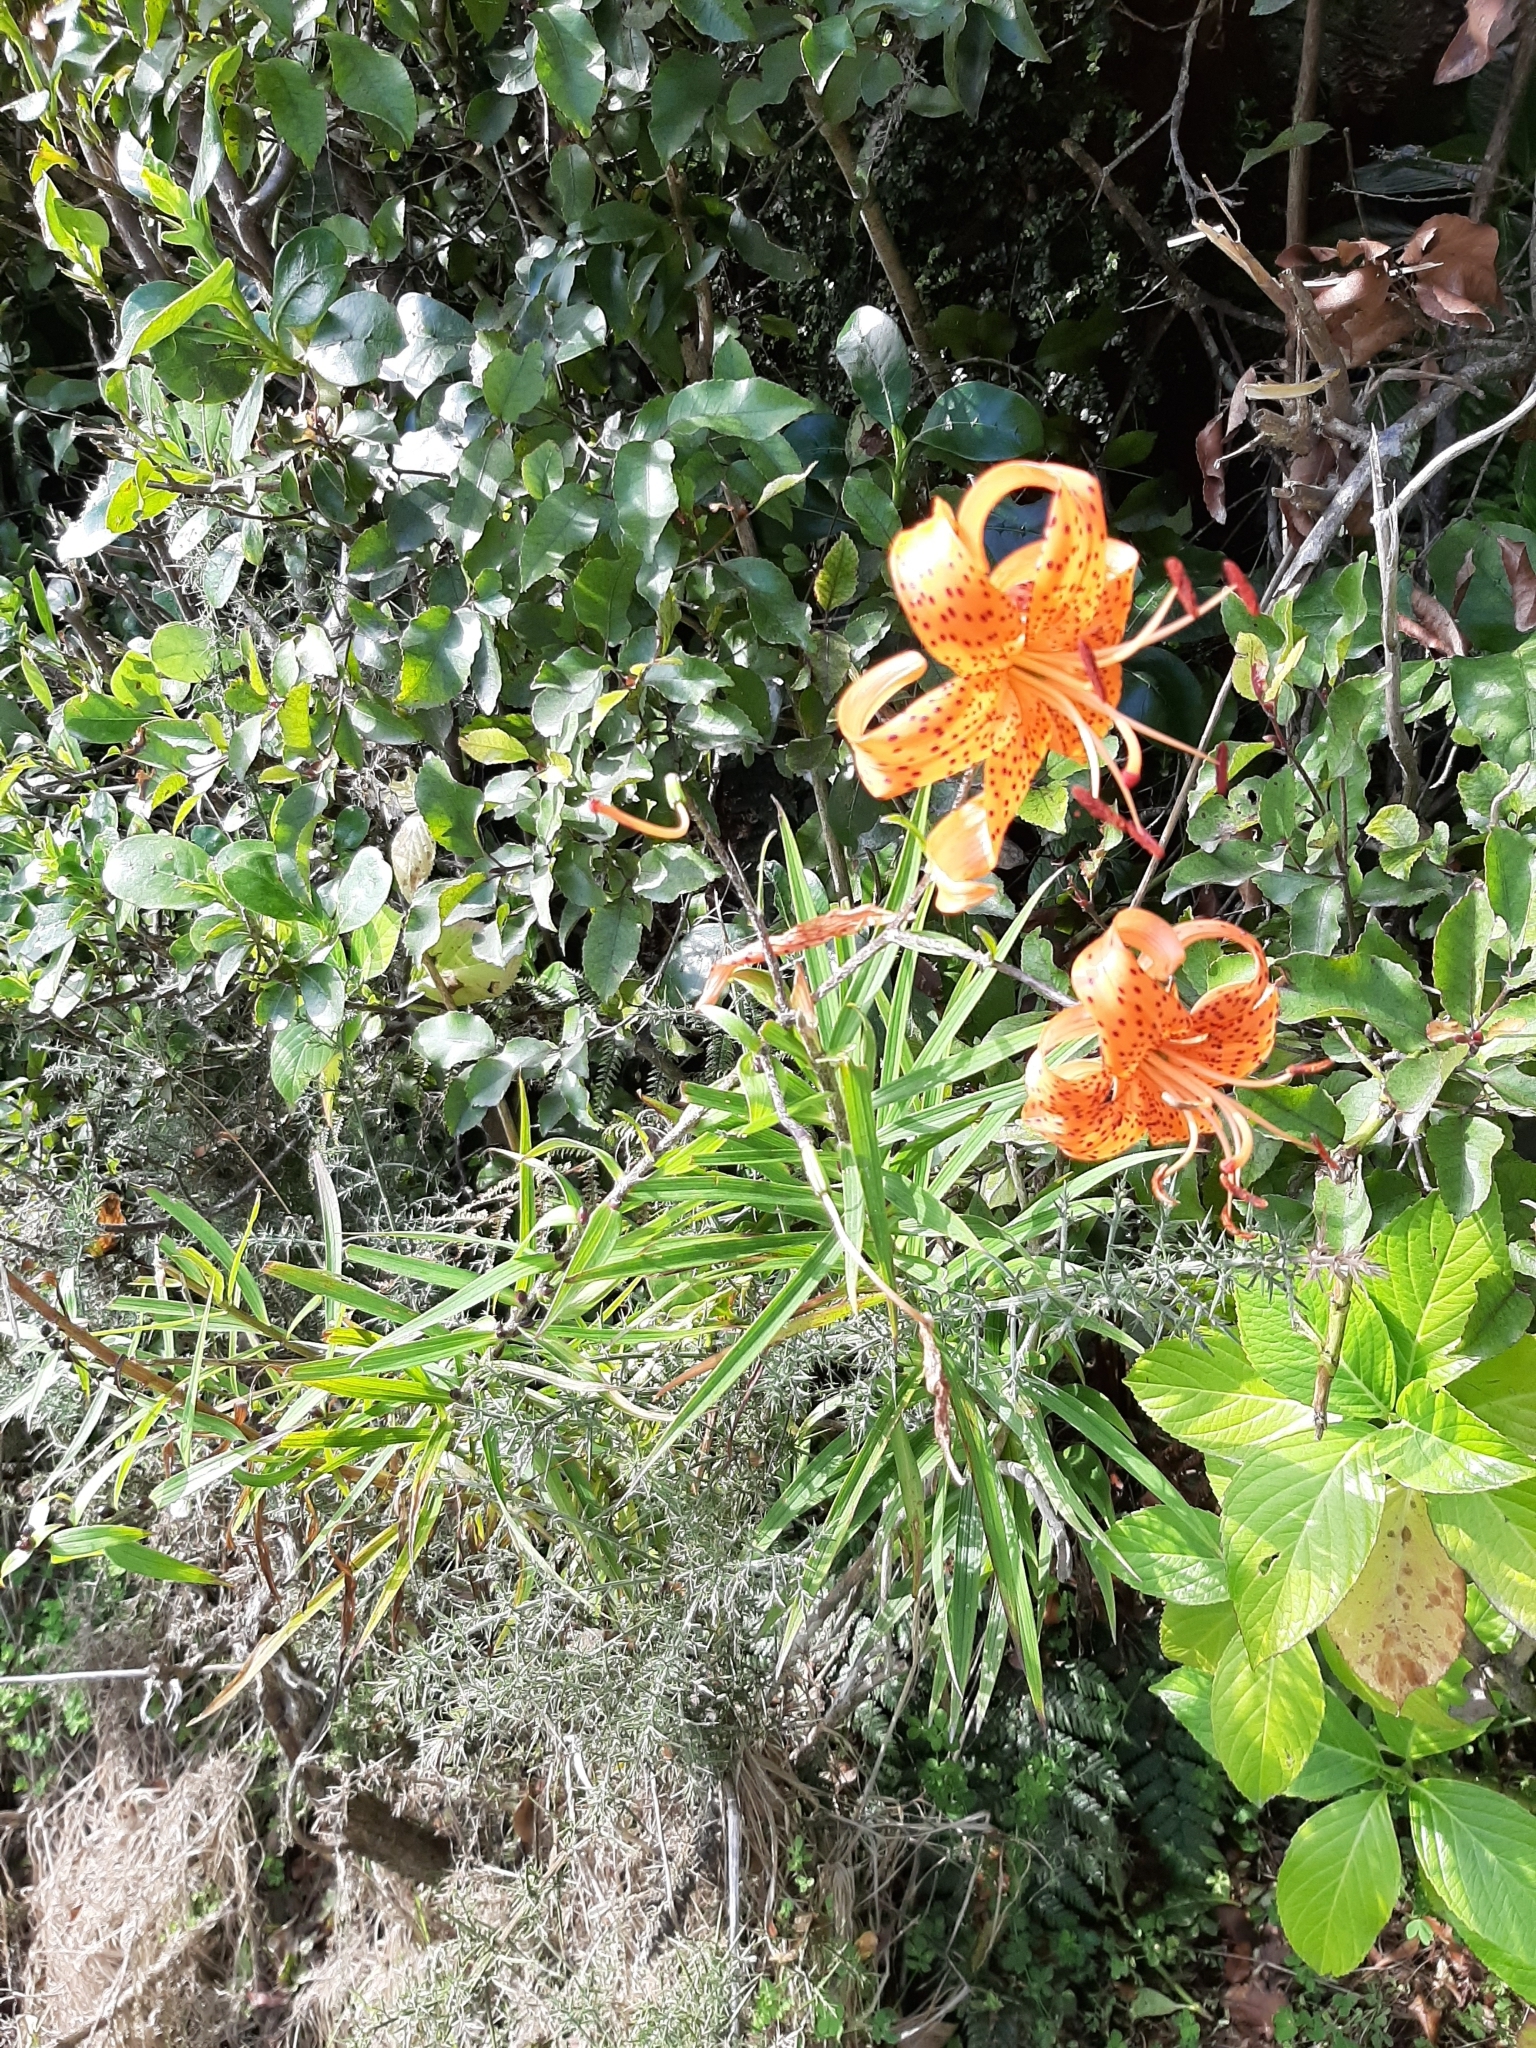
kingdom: Plantae
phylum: Tracheophyta
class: Liliopsida
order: Liliales
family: Liliaceae
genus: Lilium
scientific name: Lilium lancifolium
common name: Tiger lily
